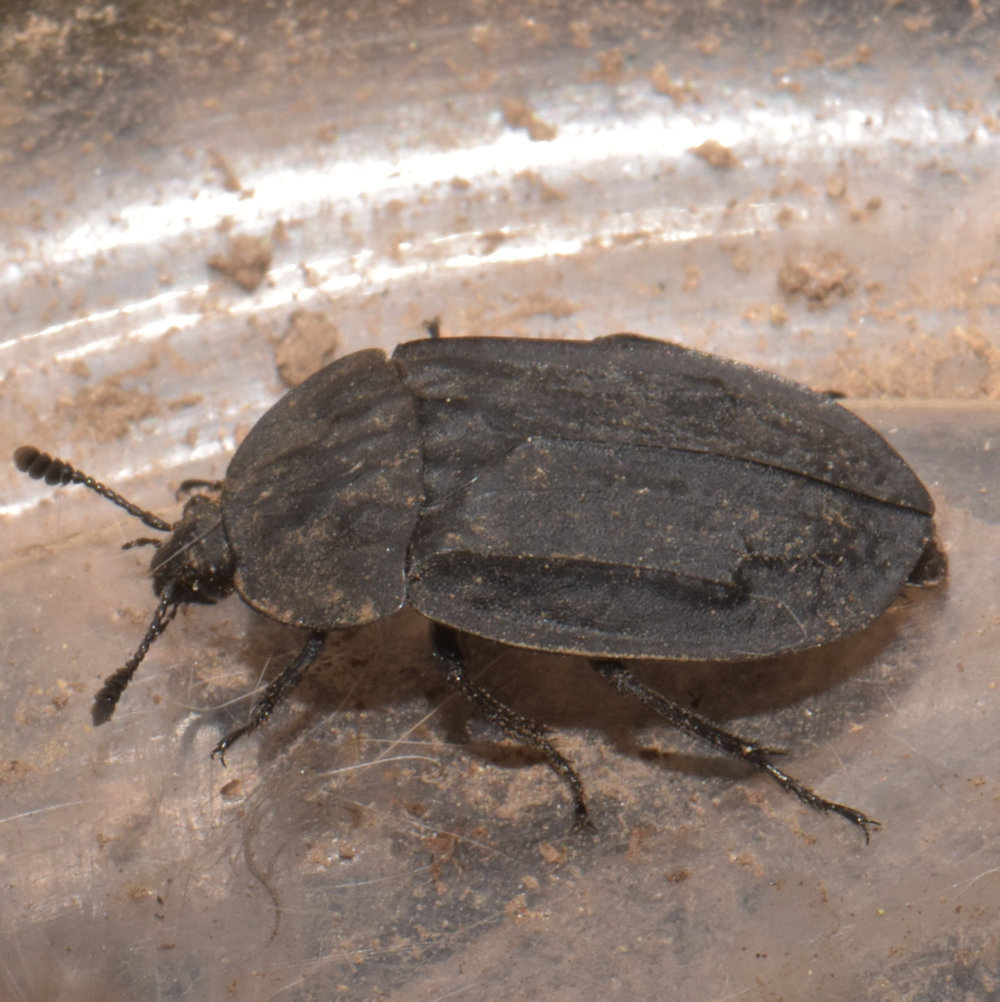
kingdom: Animalia
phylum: Arthropoda
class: Insecta
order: Coleoptera
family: Staphylinidae
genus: Oiceoptoma
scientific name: Oiceoptoma inaequale
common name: Ridged carrion beetle
